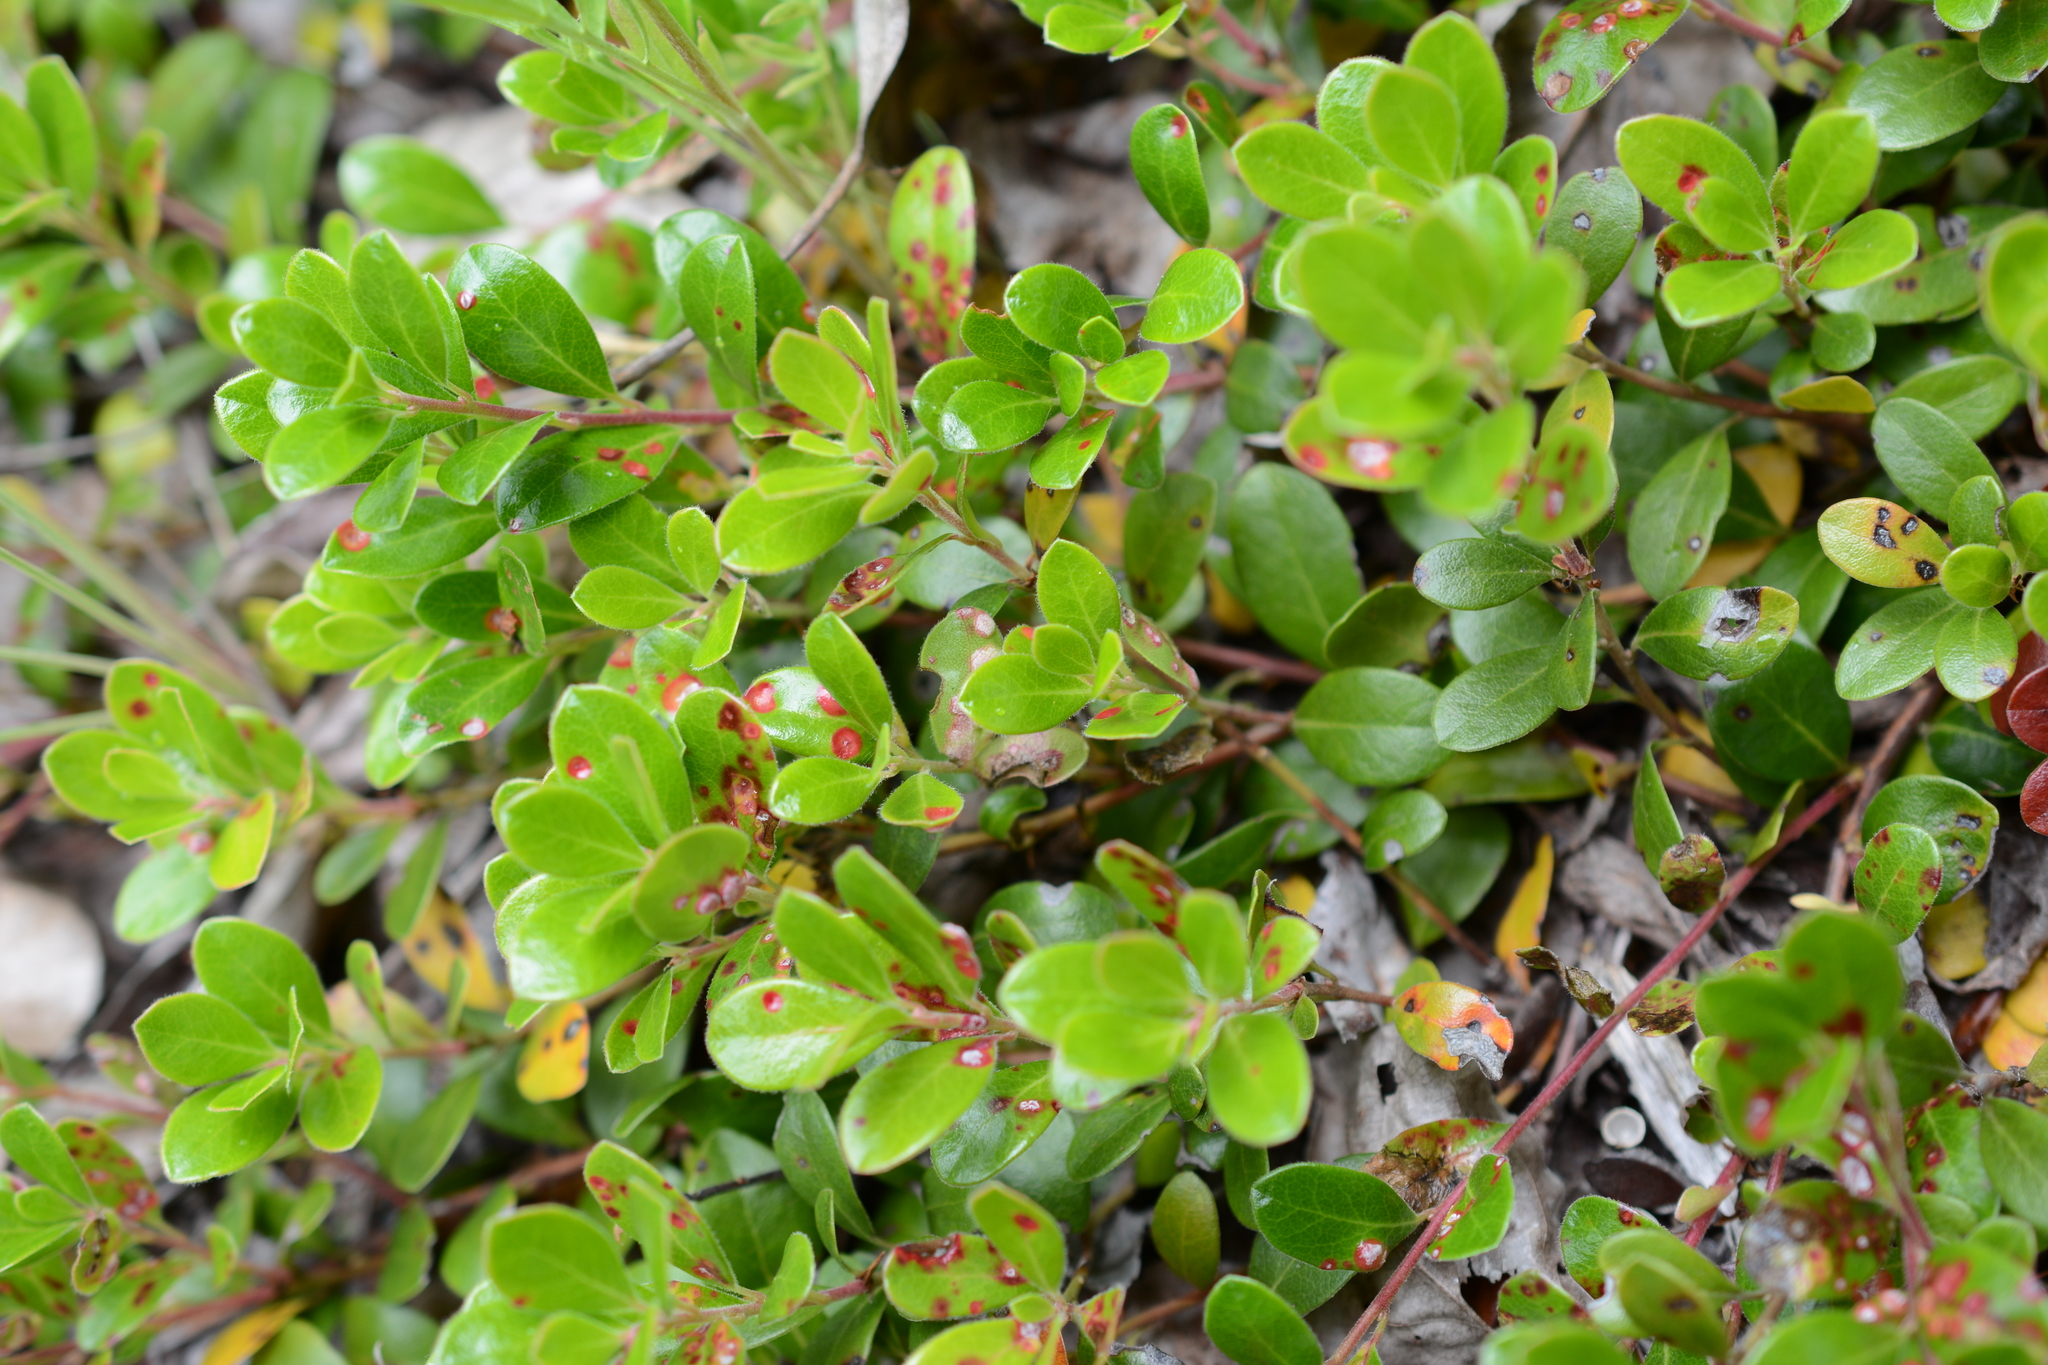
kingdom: Plantae
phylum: Tracheophyta
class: Magnoliopsida
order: Ericales
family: Ericaceae
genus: Arctostaphylos
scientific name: Arctostaphylos uva-ursi
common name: Bearberry
